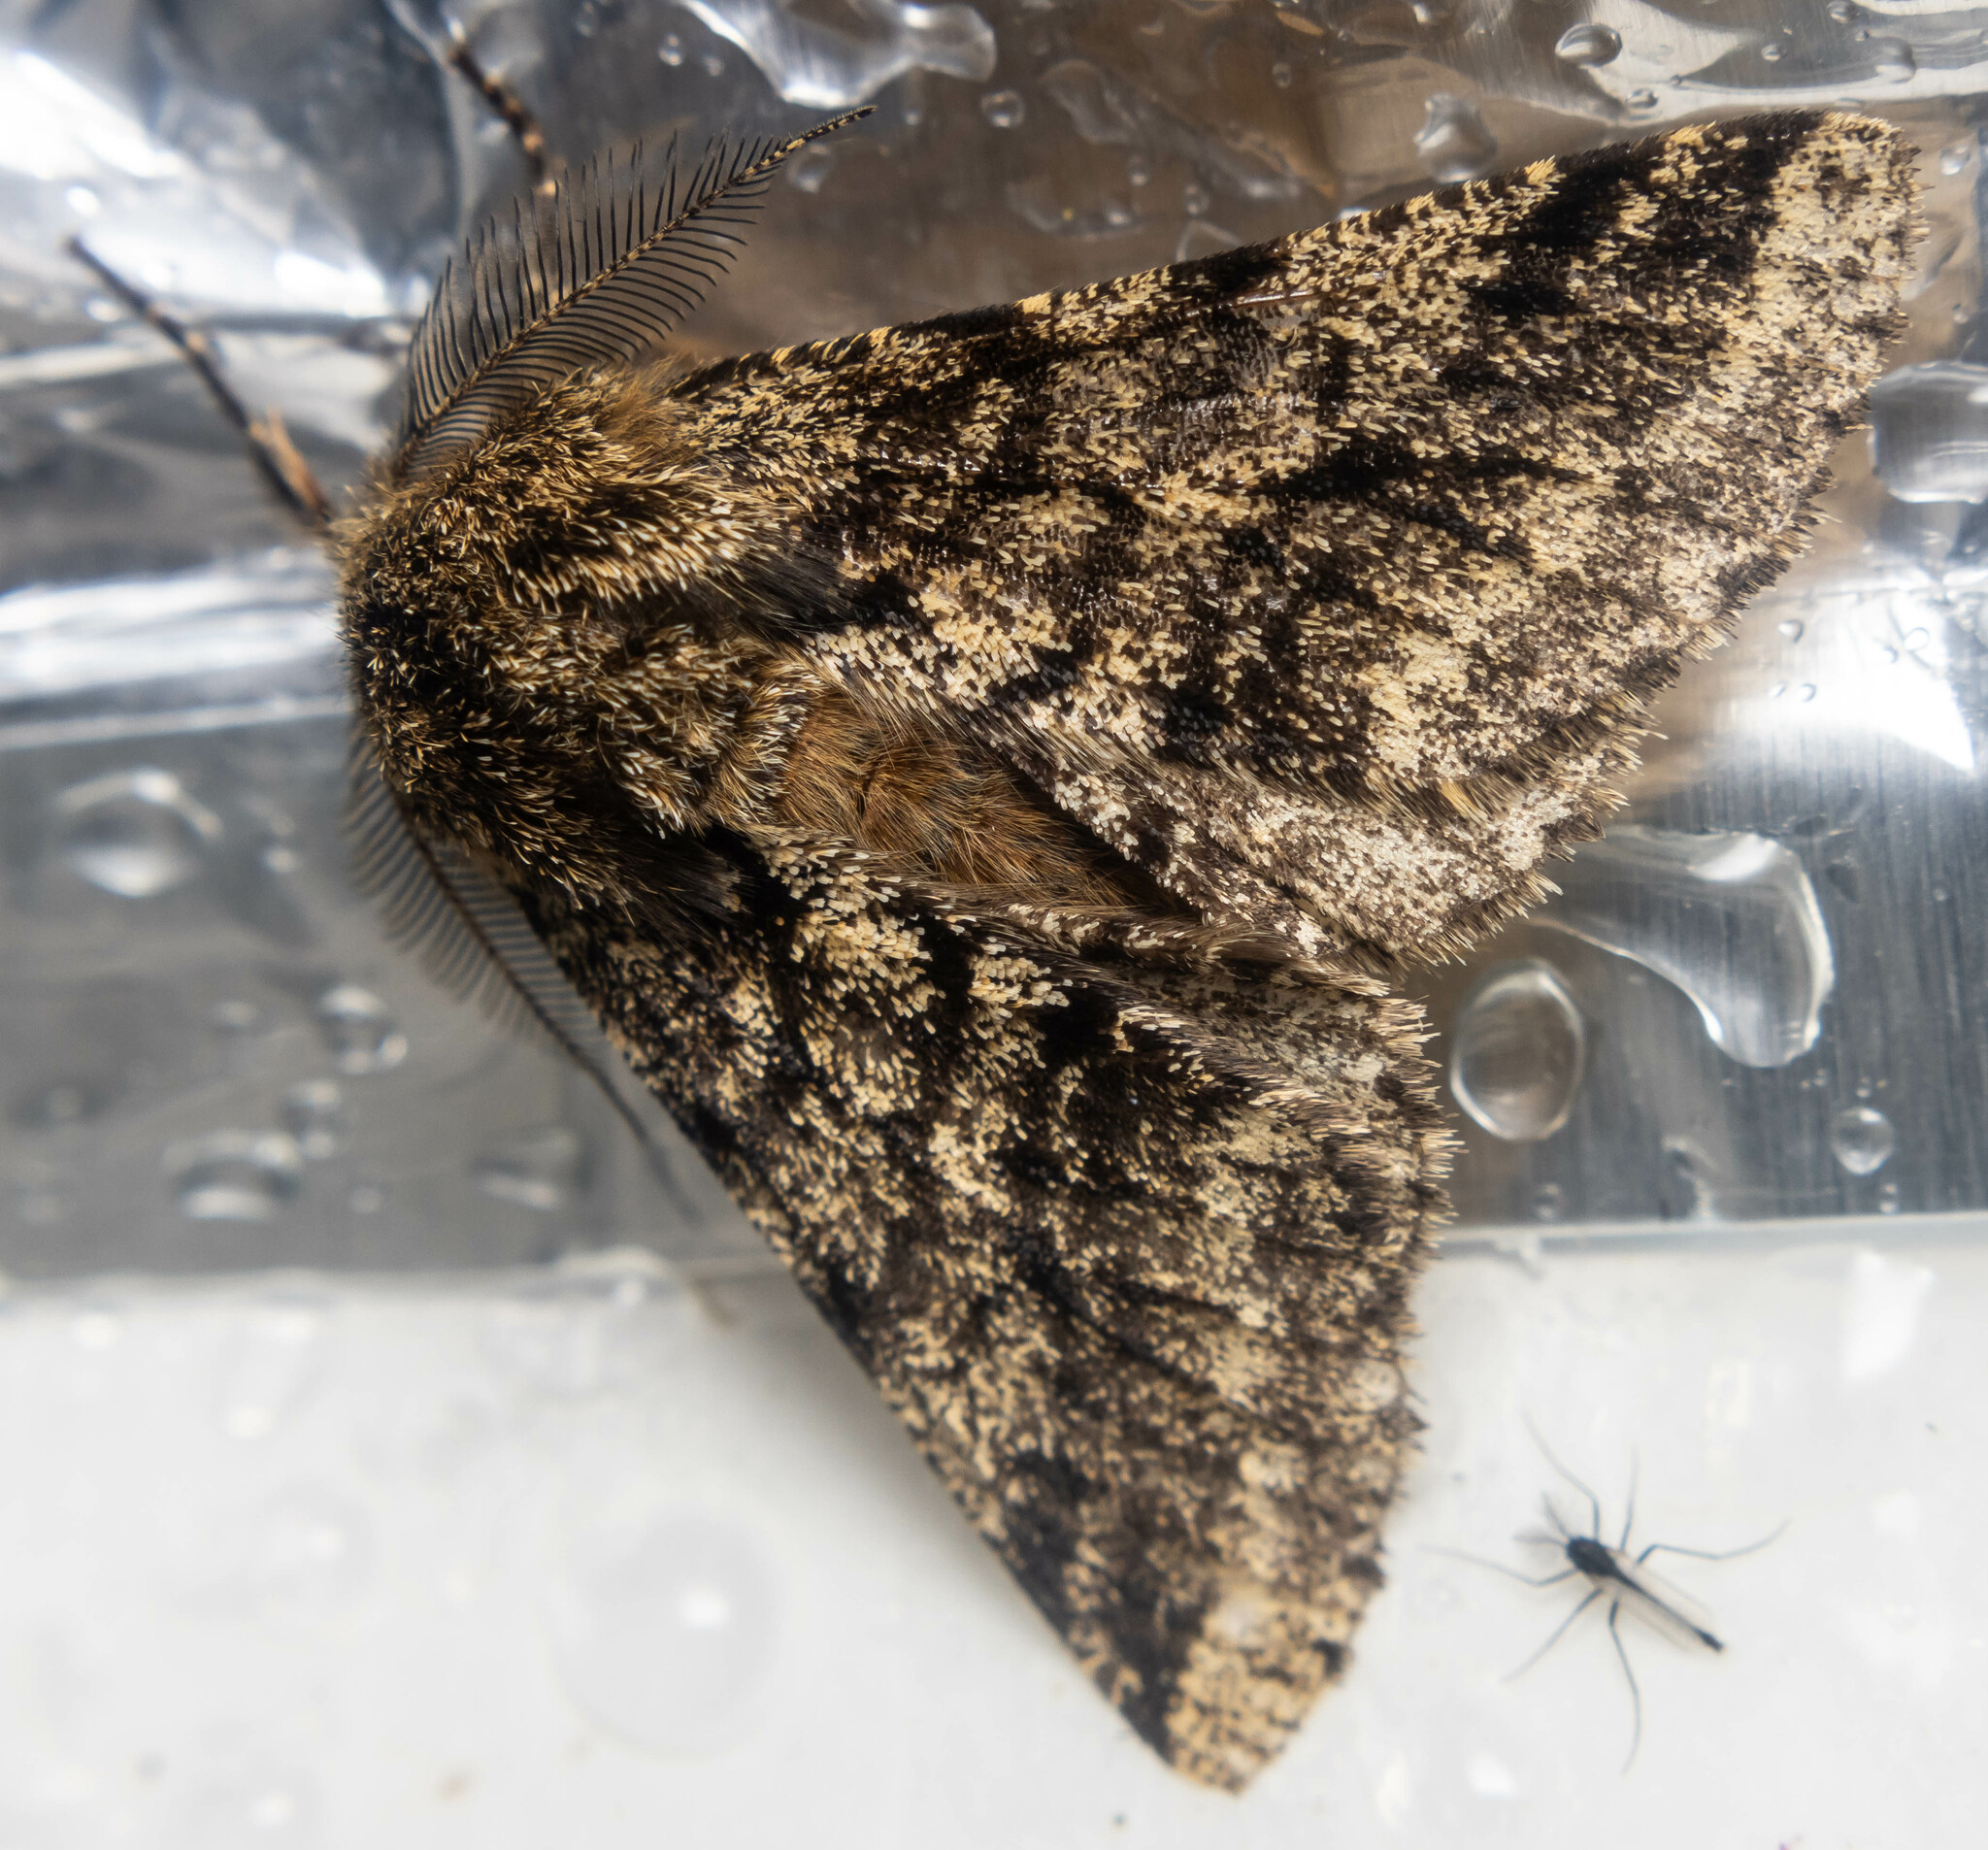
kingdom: Animalia
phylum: Arthropoda
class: Insecta
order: Lepidoptera
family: Geometridae
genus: Lycia
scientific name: Lycia hirtaria
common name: Brindled beauty
